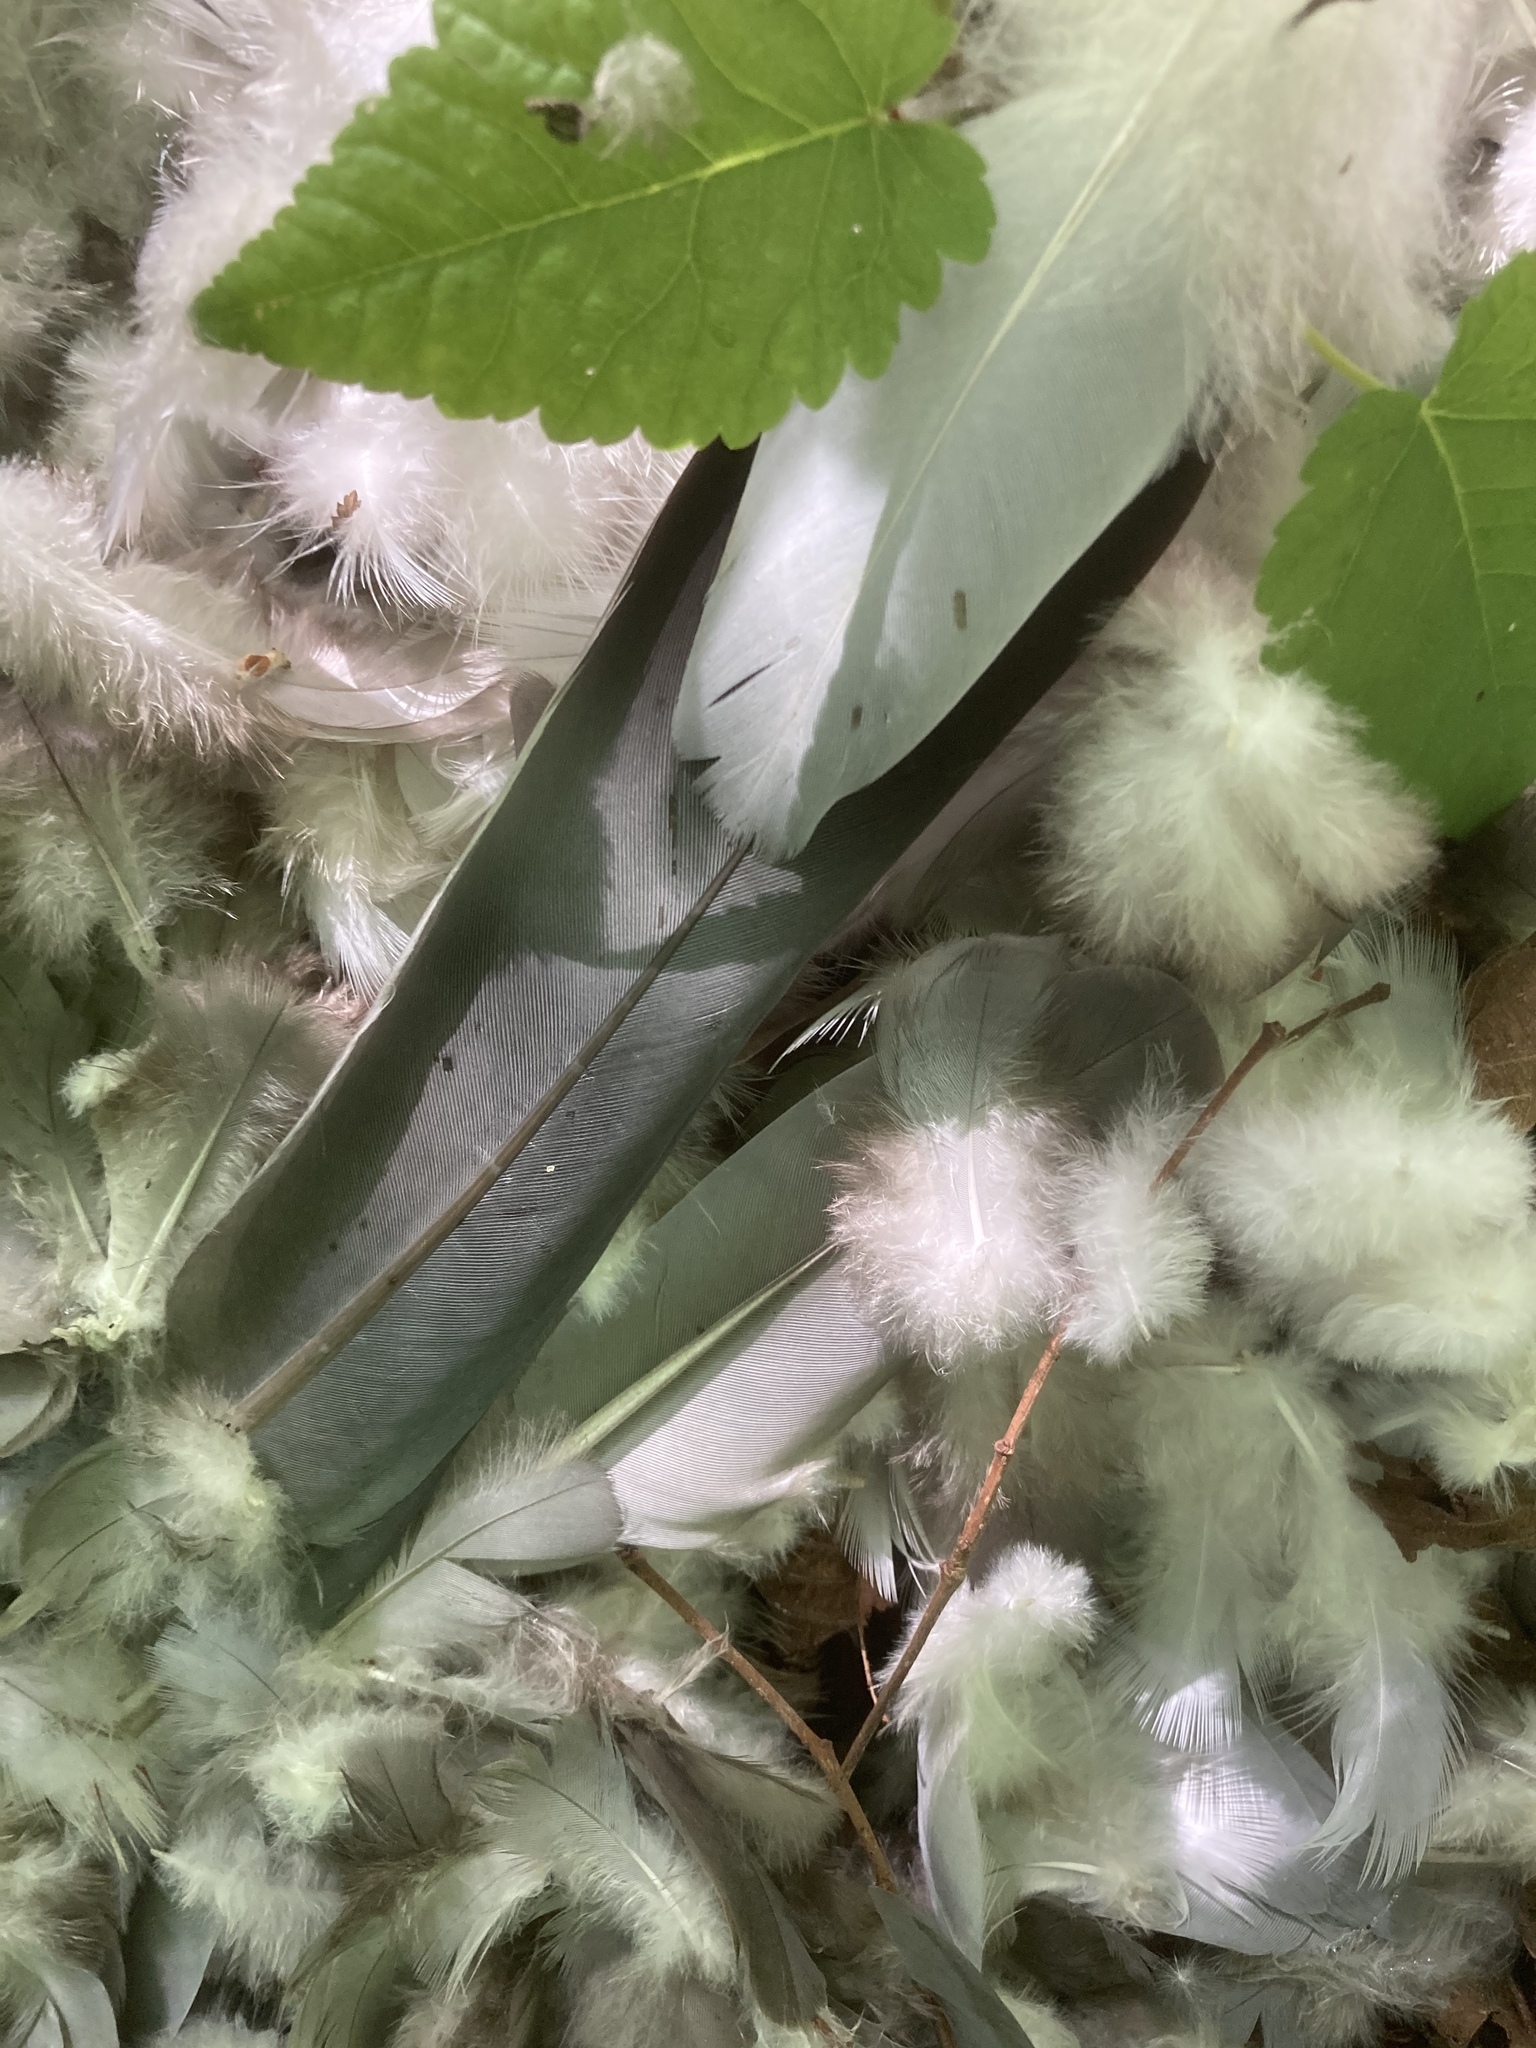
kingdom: Animalia
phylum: Chordata
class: Aves
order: Columbiformes
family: Columbidae
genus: Columba
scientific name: Columba palumbus
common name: Common wood pigeon
